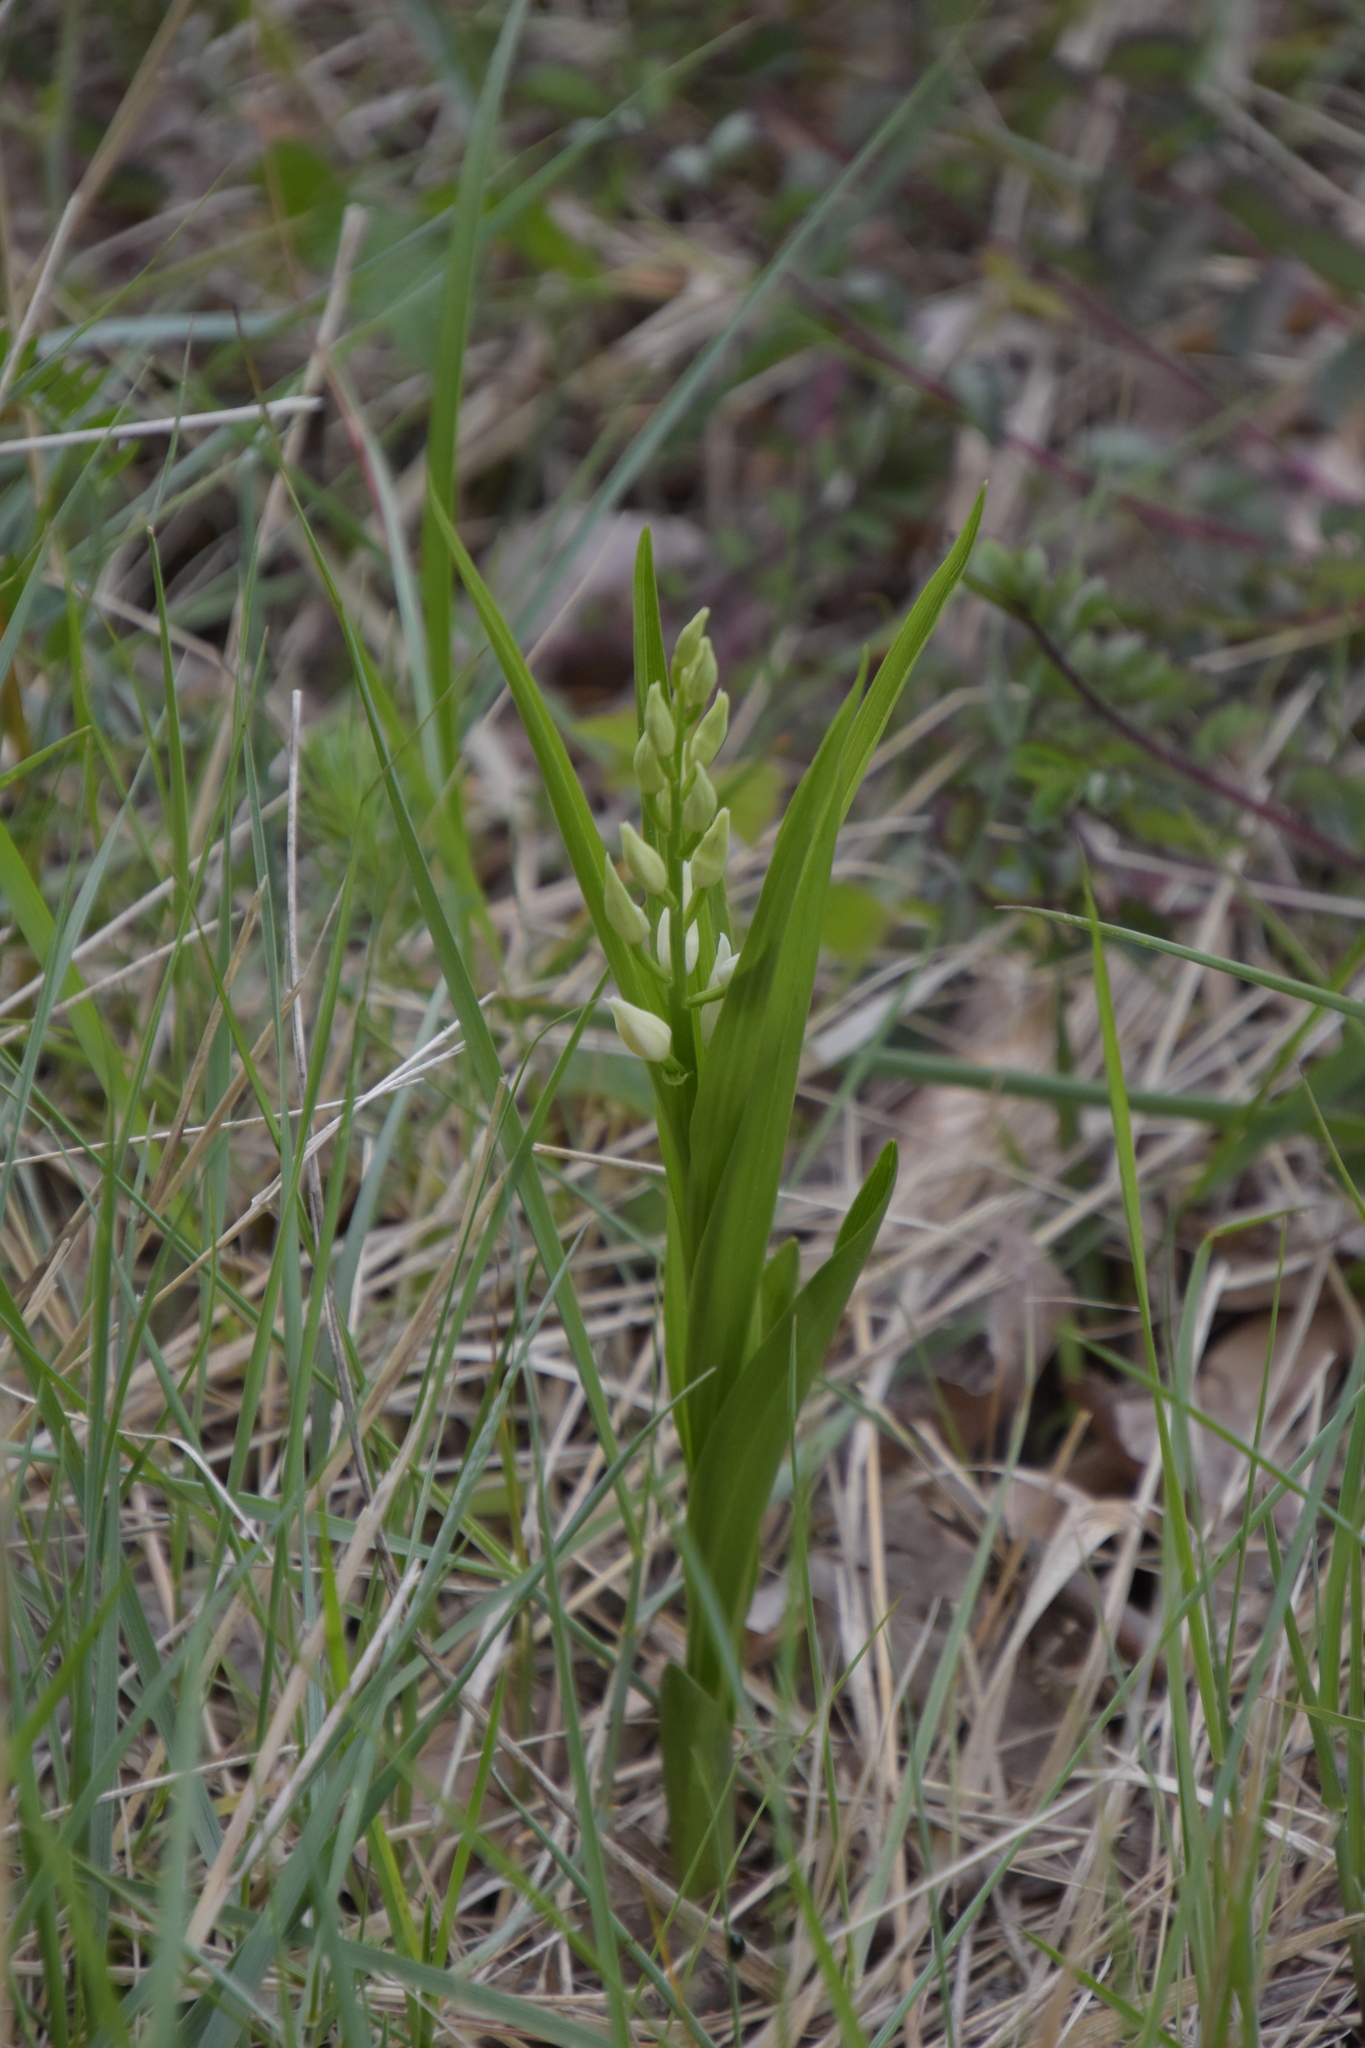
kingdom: Plantae
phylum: Tracheophyta
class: Liliopsida
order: Asparagales
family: Orchidaceae
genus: Cephalanthera
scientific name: Cephalanthera longifolia
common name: Narrow-leaved helleborine
